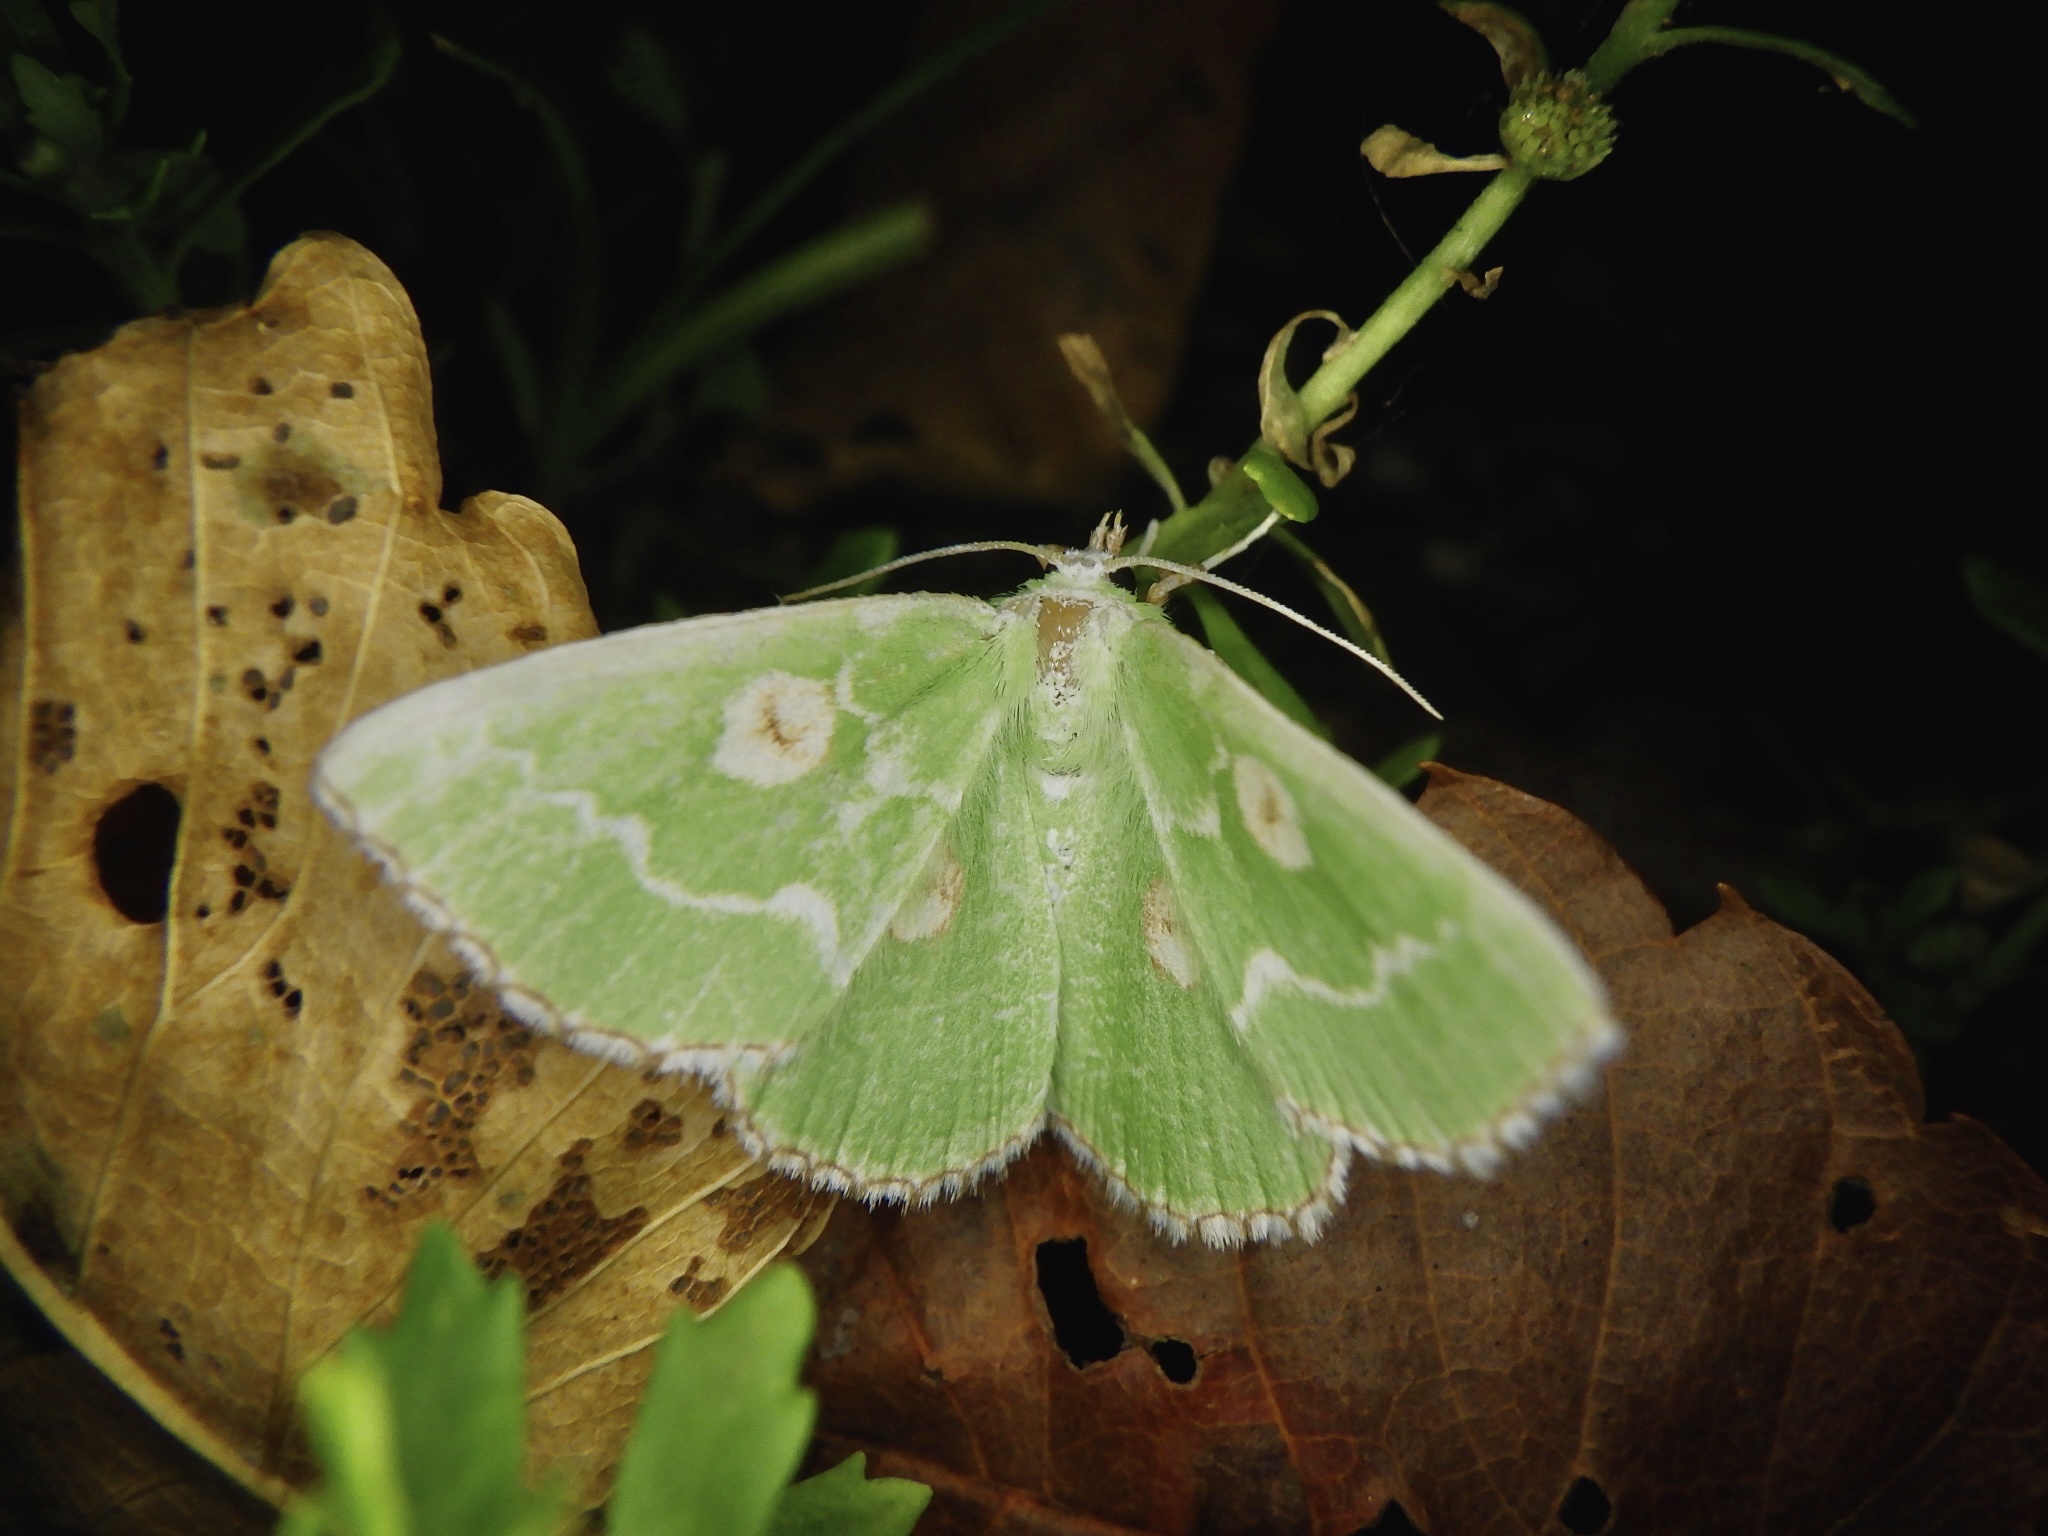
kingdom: Animalia
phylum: Arthropoda
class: Insecta
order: Lepidoptera
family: Geometridae
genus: Thetidia
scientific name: Thetidia albocostaria
